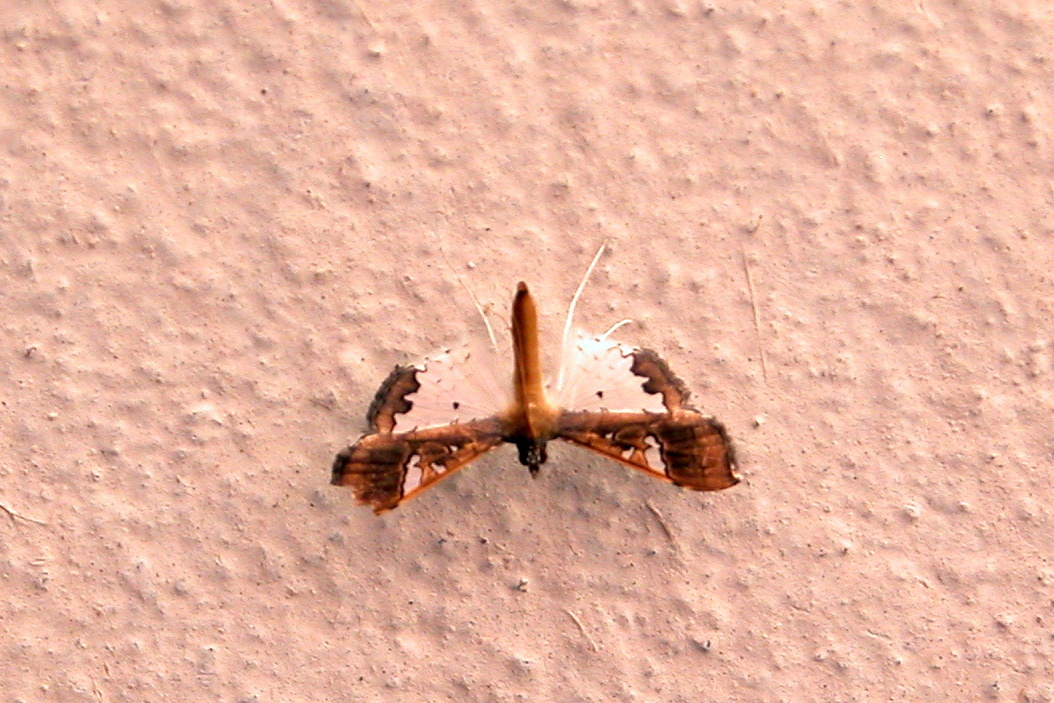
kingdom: Animalia
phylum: Arthropoda
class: Insecta
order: Lepidoptera
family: Crambidae
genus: Maruca
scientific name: Maruca vitrata
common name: Maruca pod borer
